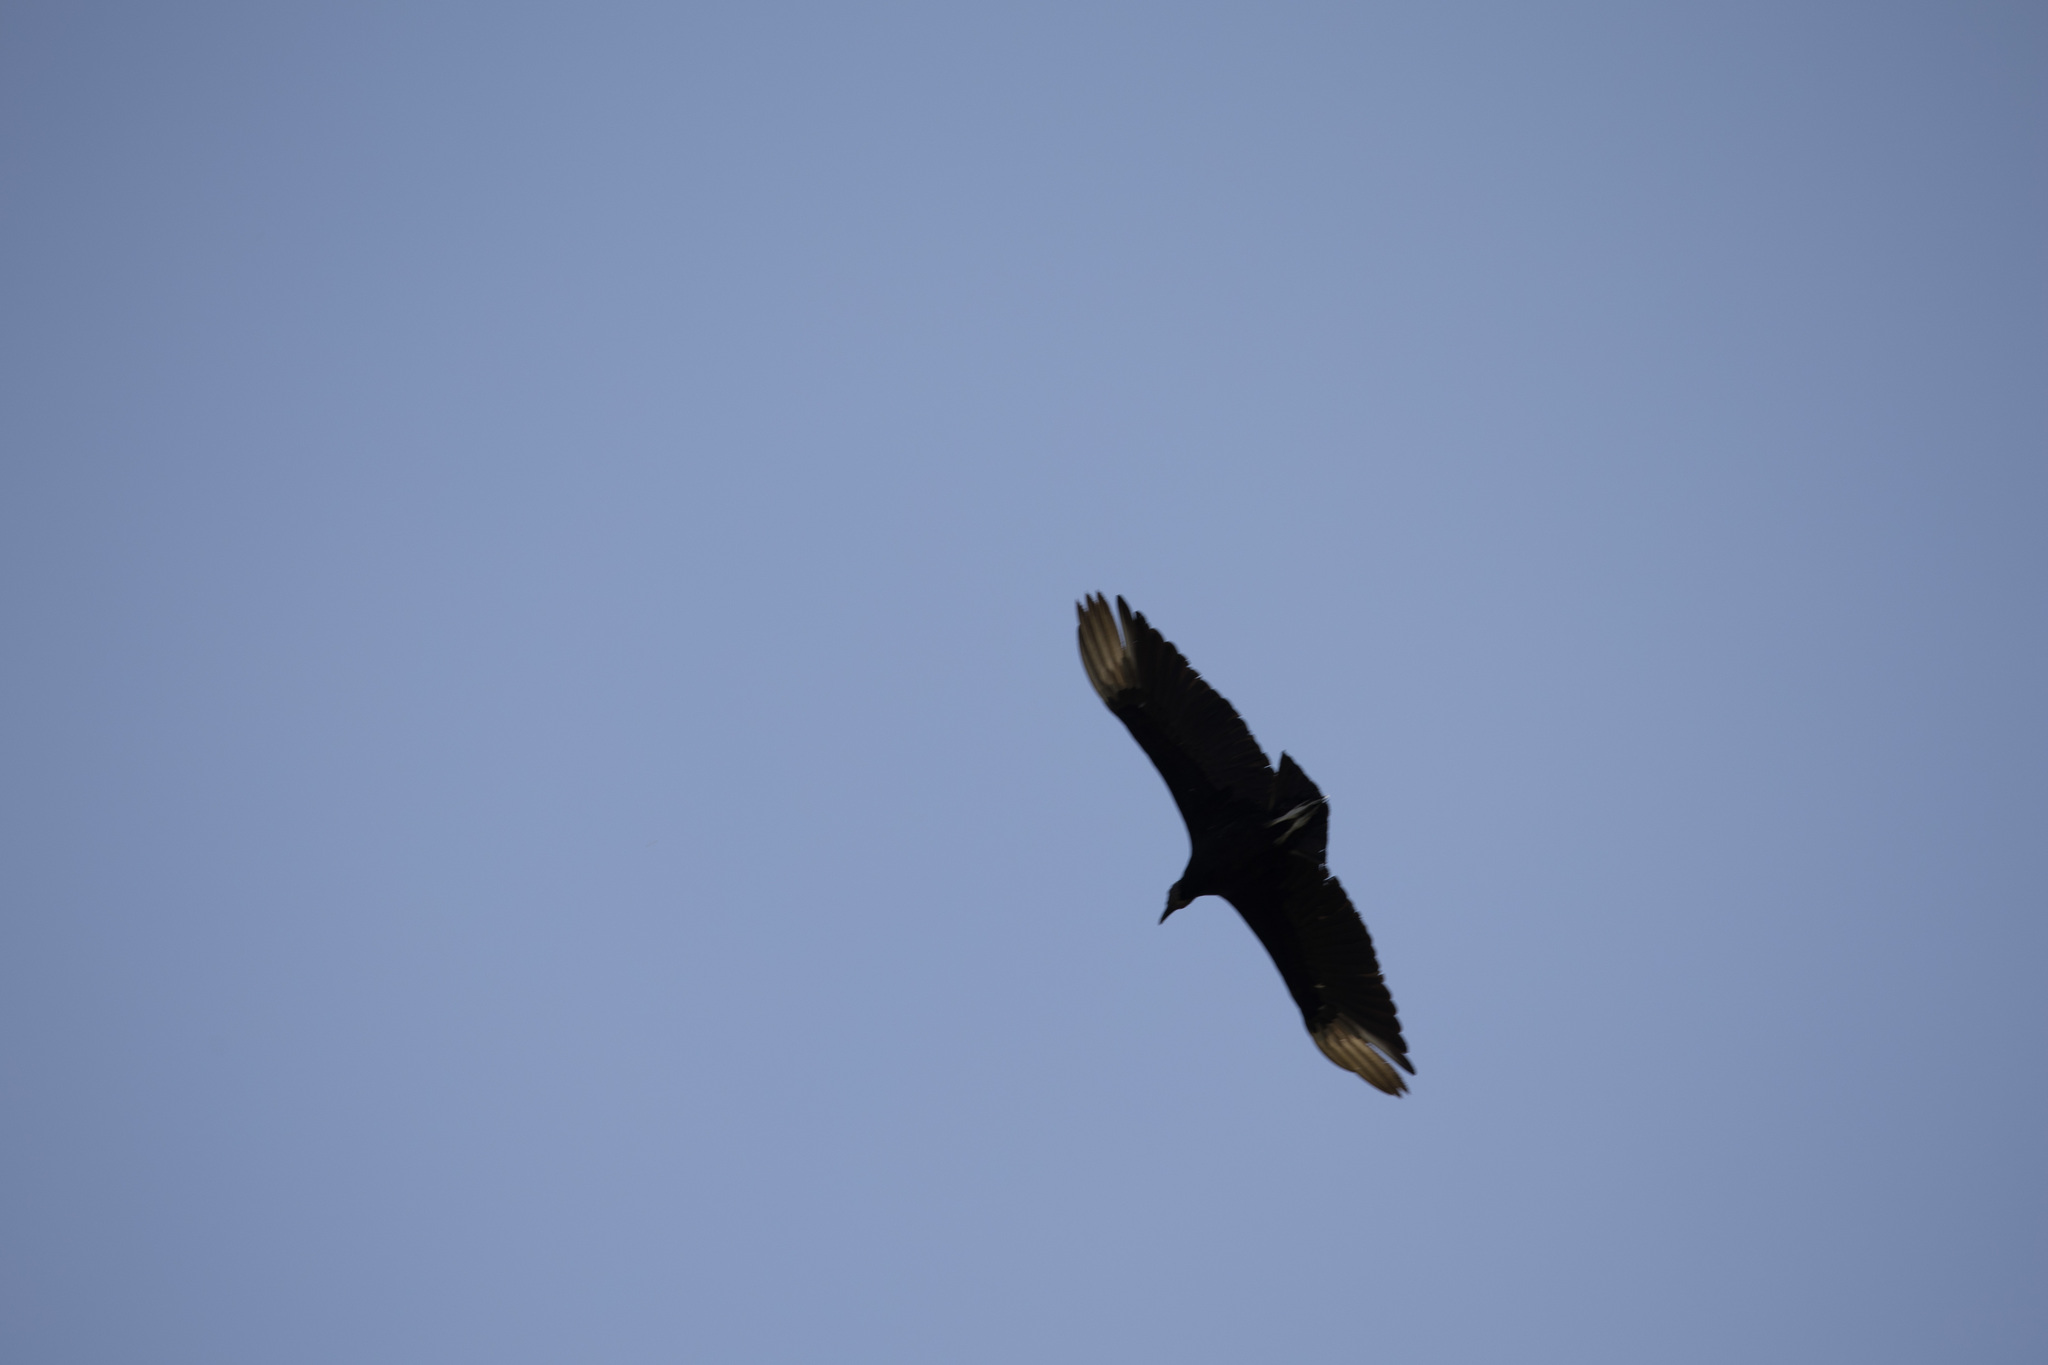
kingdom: Animalia
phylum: Chordata
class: Aves
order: Accipitriformes
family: Cathartidae
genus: Coragyps
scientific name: Coragyps atratus
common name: Black vulture
